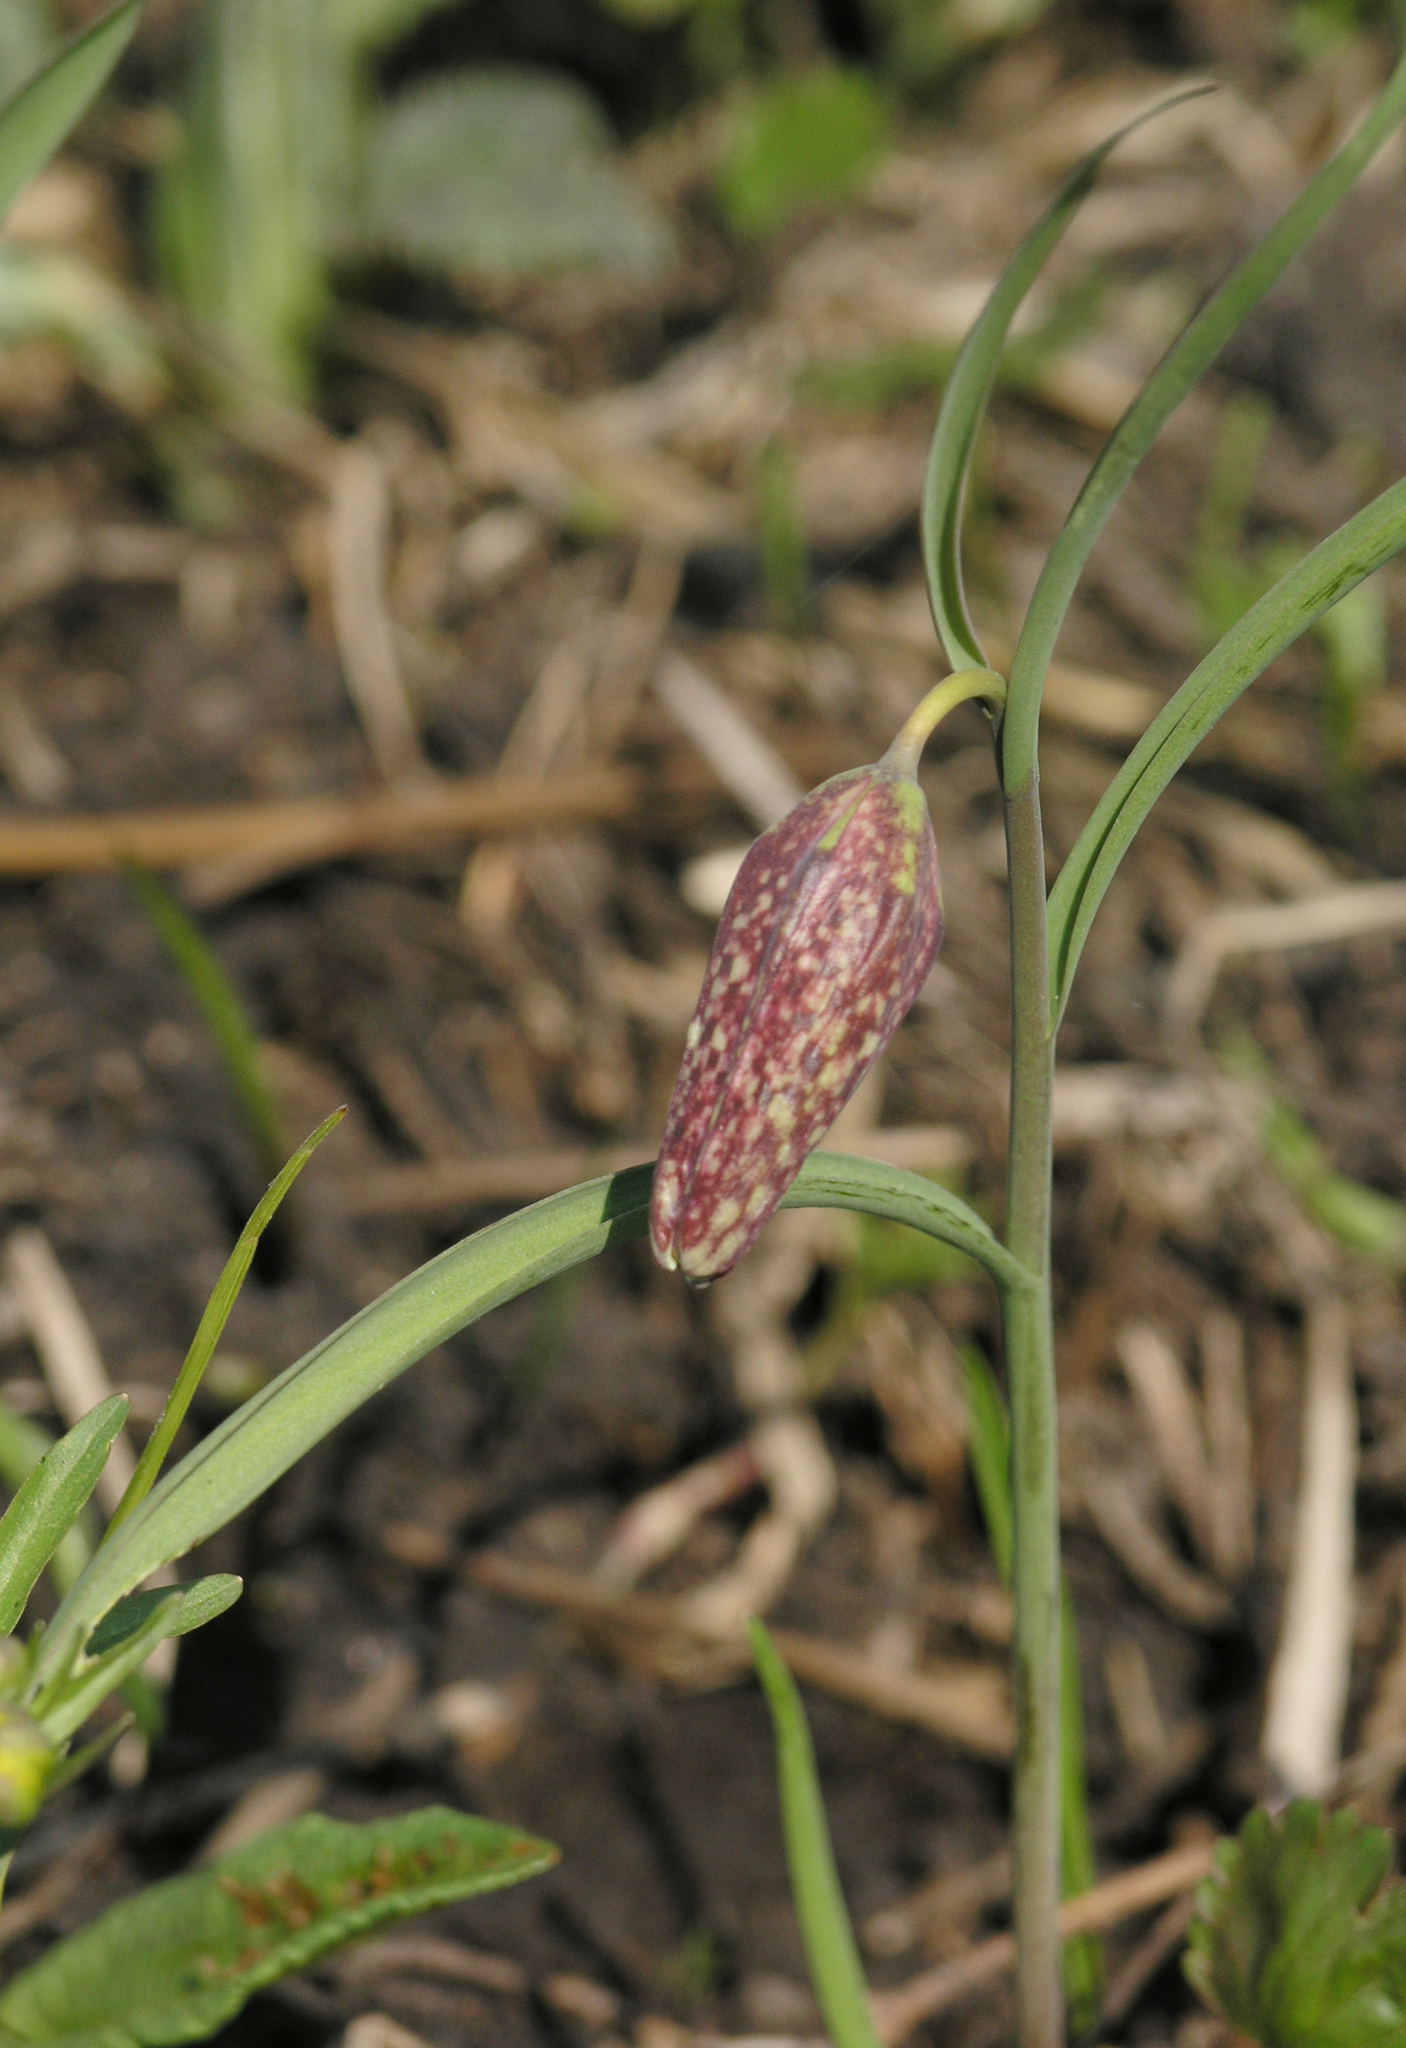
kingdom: Plantae
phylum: Tracheophyta
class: Liliopsida
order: Liliales
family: Liliaceae
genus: Fritillaria
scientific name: Fritillaria meleagris
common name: Fritillary
